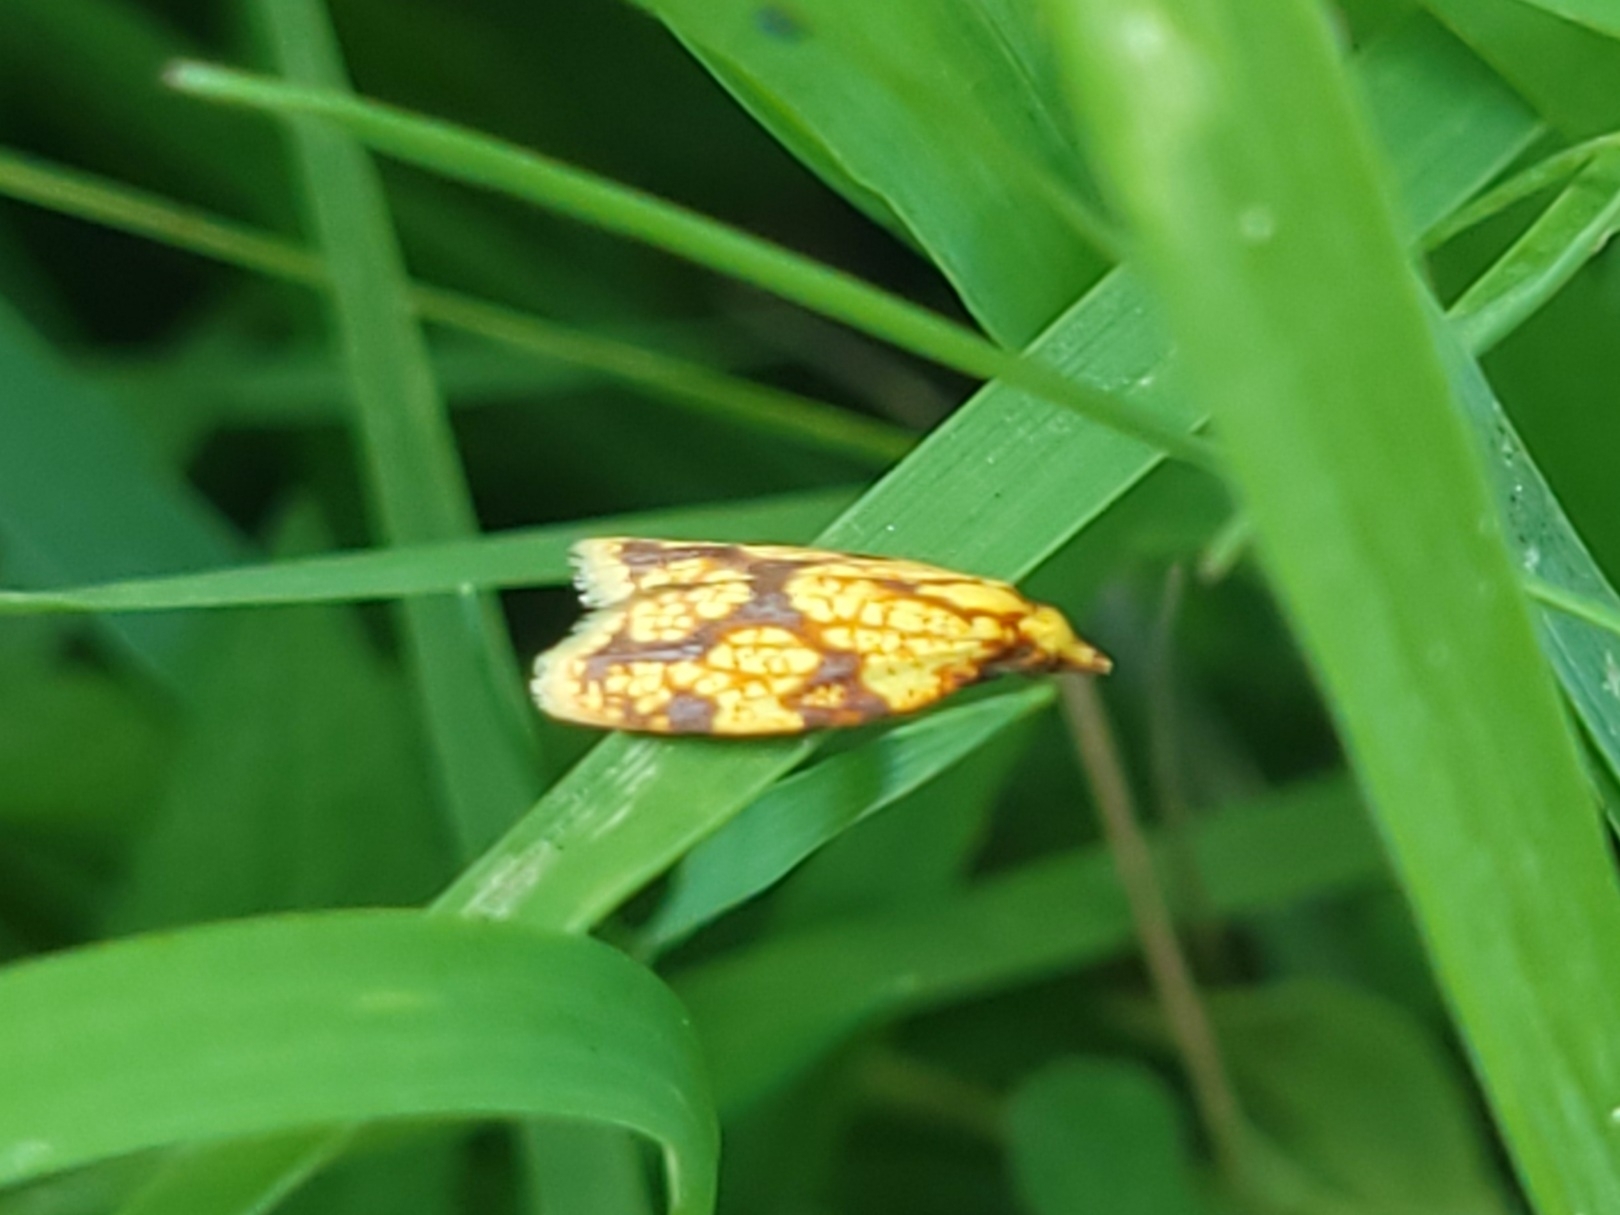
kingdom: Animalia
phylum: Arthropoda
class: Insecta
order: Lepidoptera
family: Tortricidae
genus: Sparganothis
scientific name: Sparganothis sulfureana
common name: Sparganothis fruitworm moth
